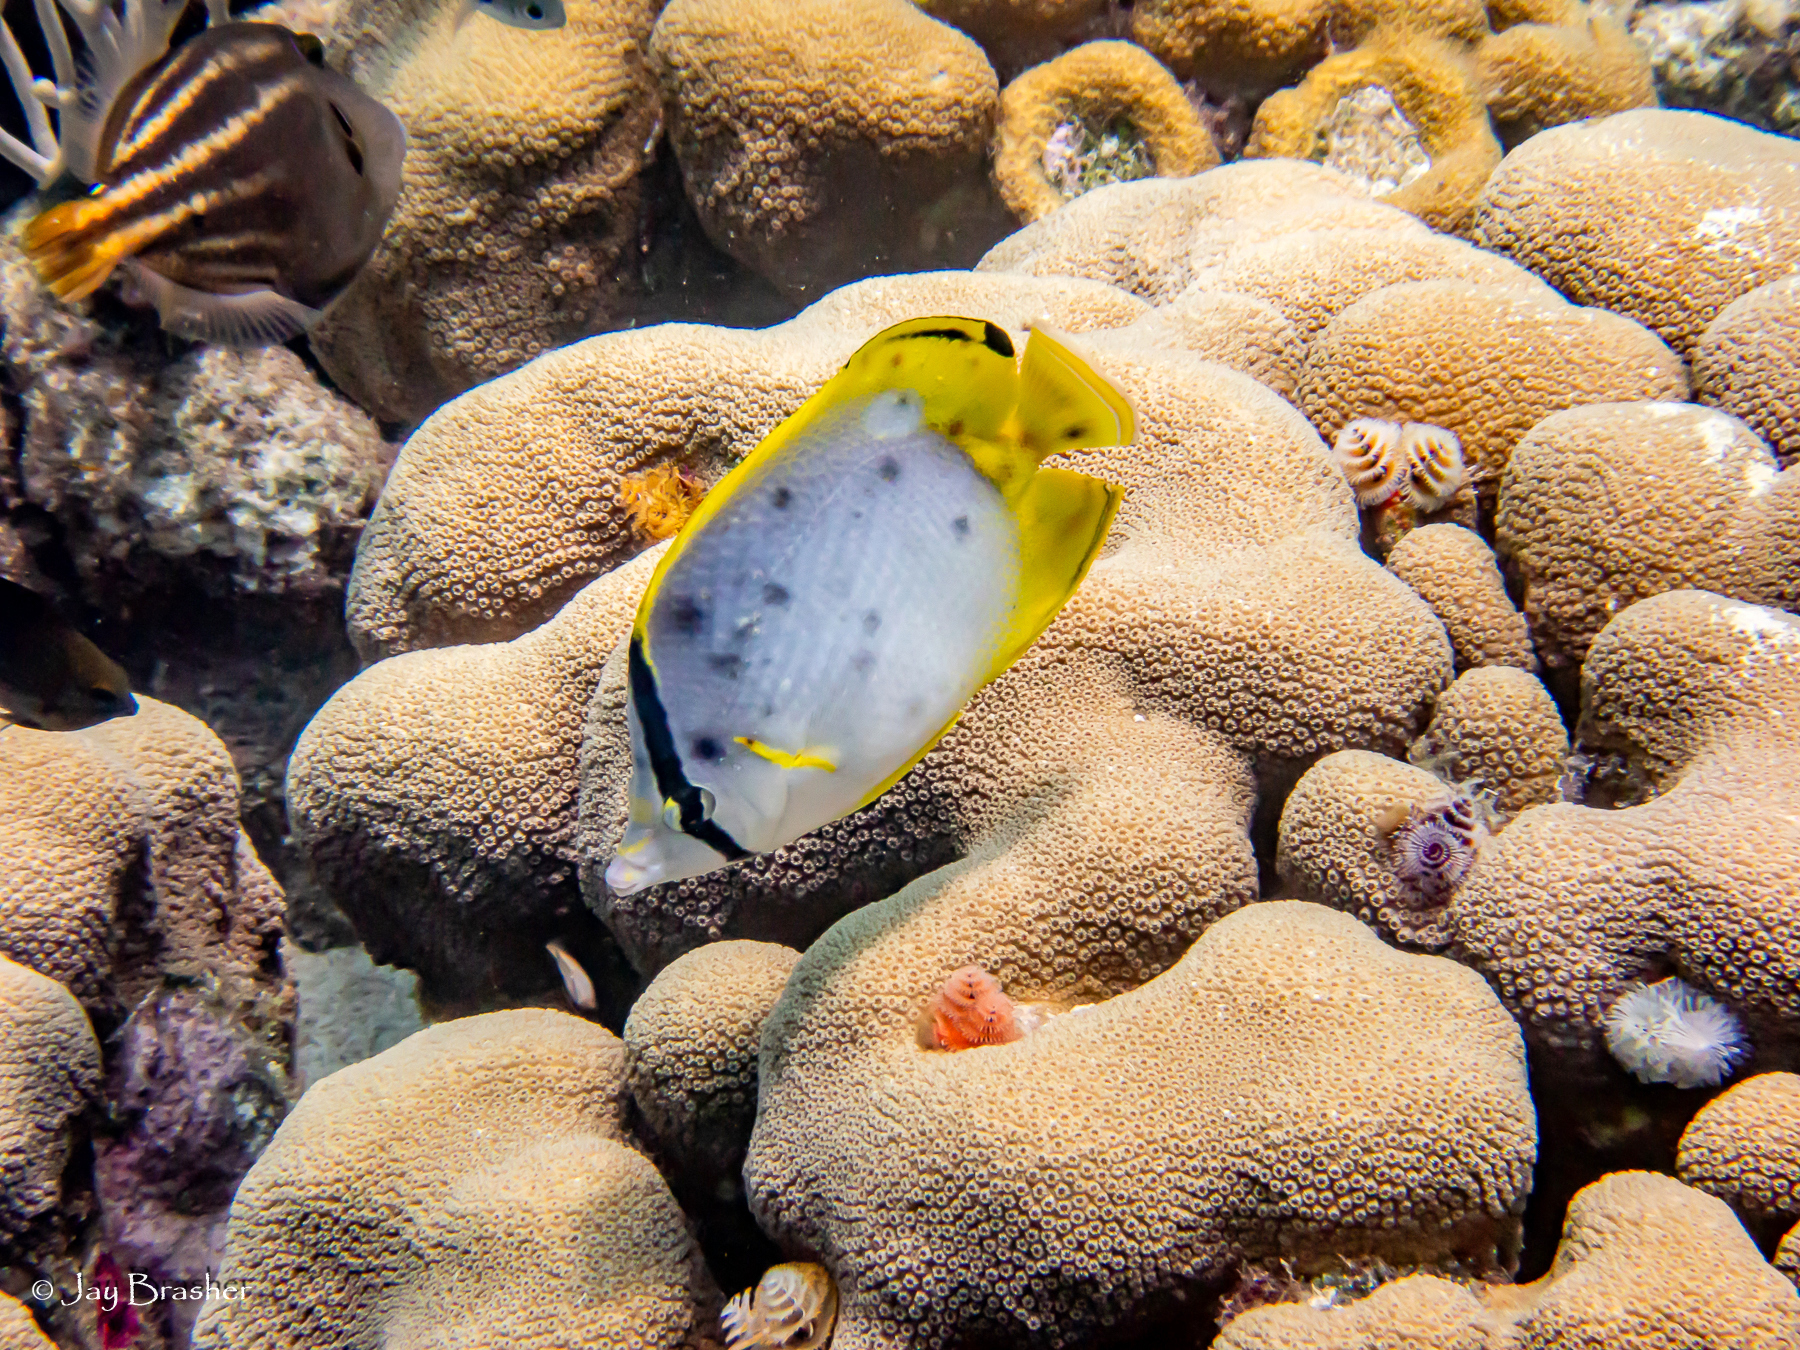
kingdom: Animalia
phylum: Chordata
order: Perciformes
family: Chaetodontidae
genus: Chaetodon
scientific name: Chaetodon ocellatus
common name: Spotfin butterflyfish
